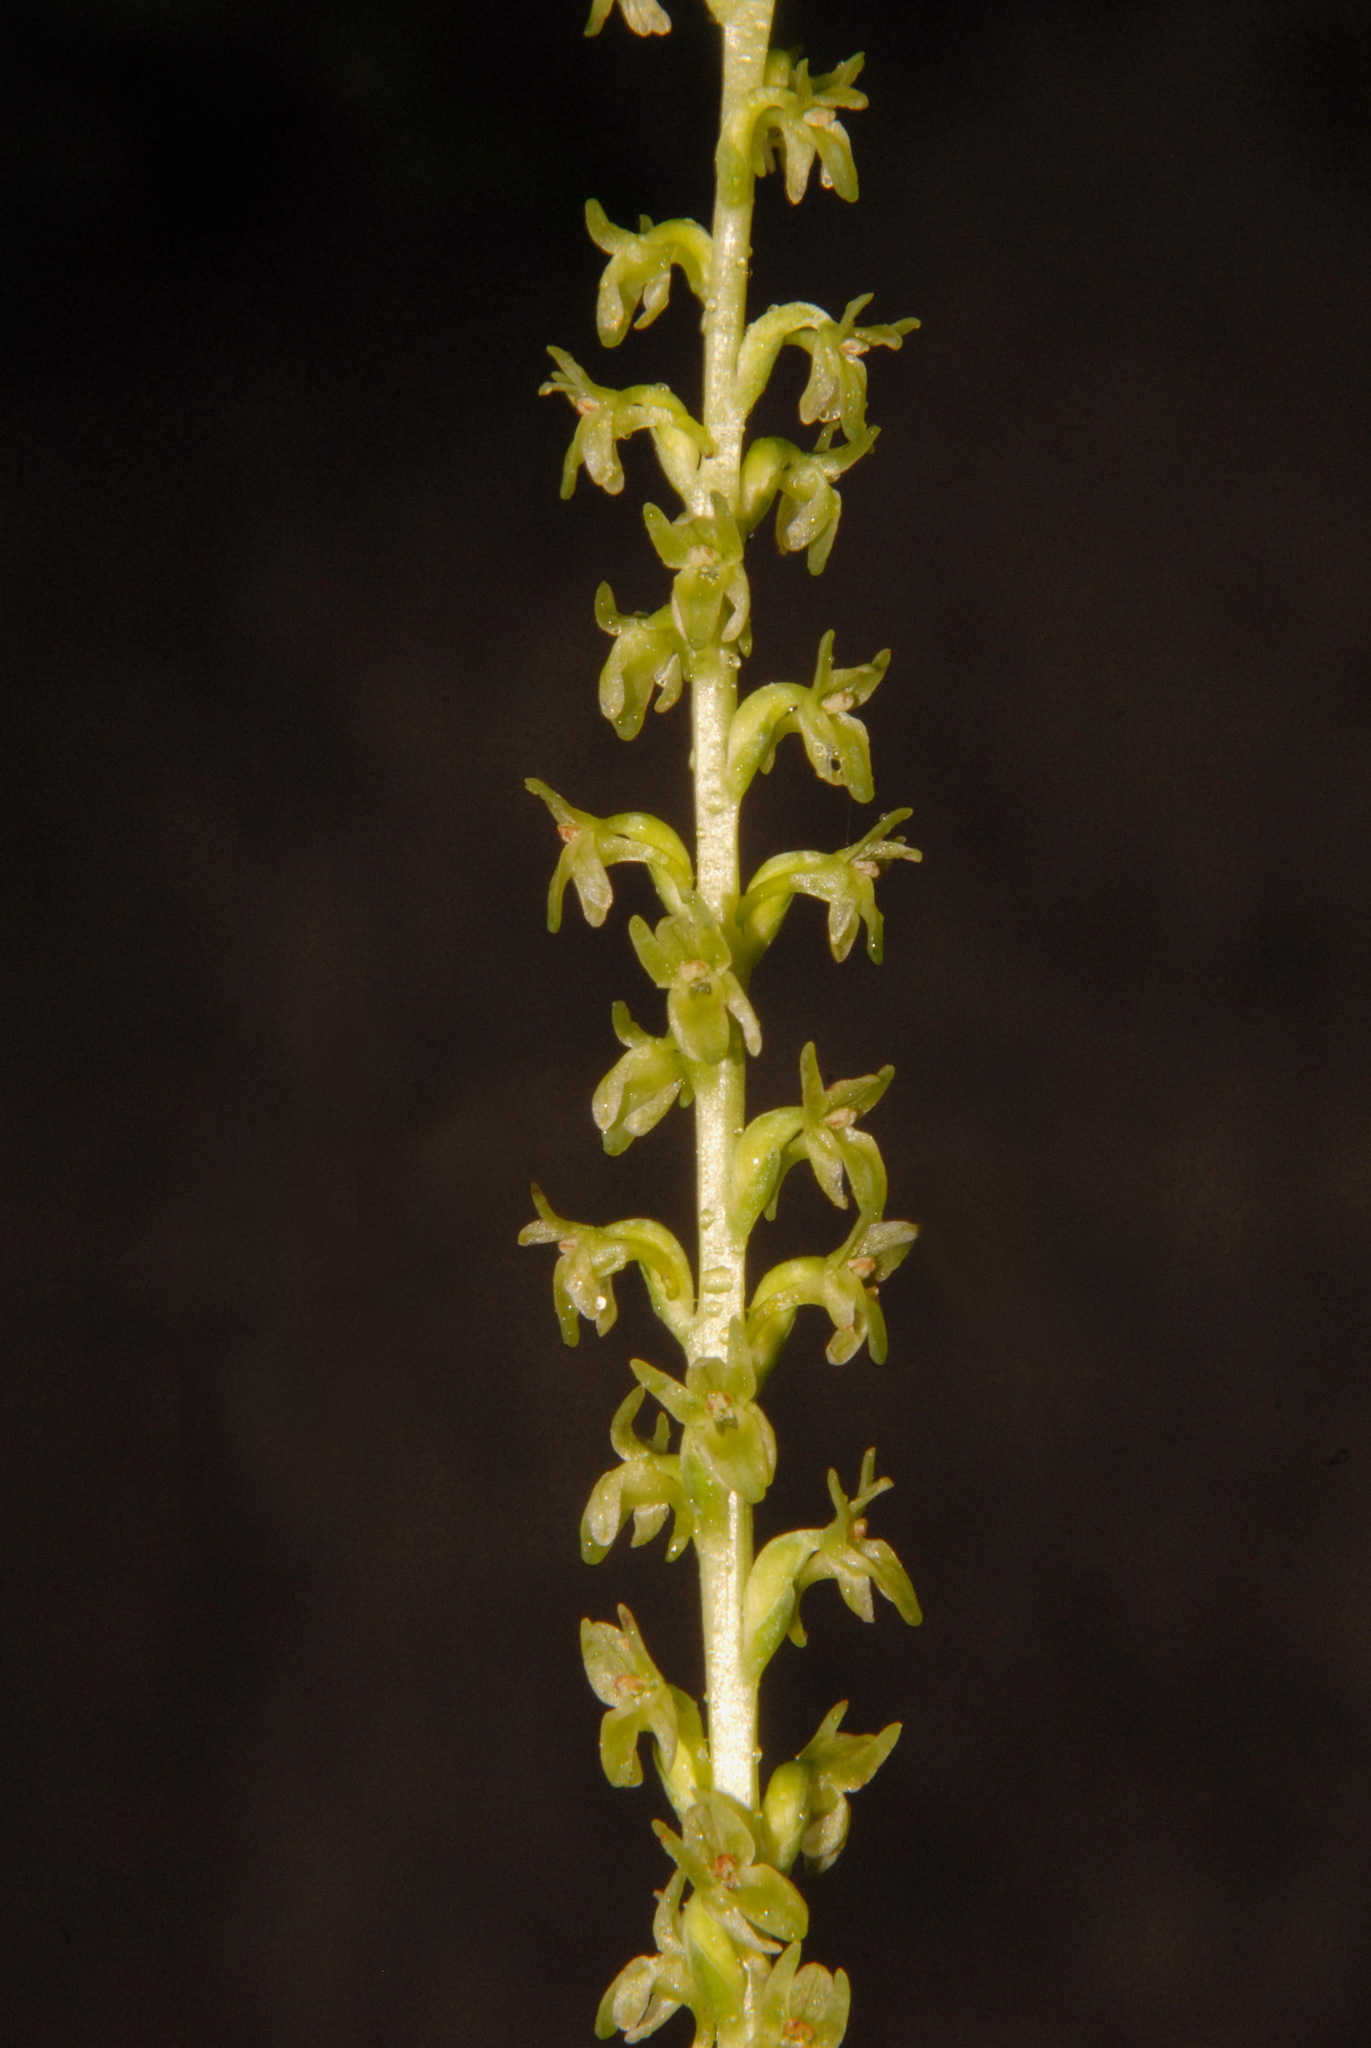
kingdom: Plantae
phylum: Tracheophyta
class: Liliopsida
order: Asparagales
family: Orchidaceae
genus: Platanthera
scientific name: Platanthera unalascensis
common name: Alaska bog orchid
